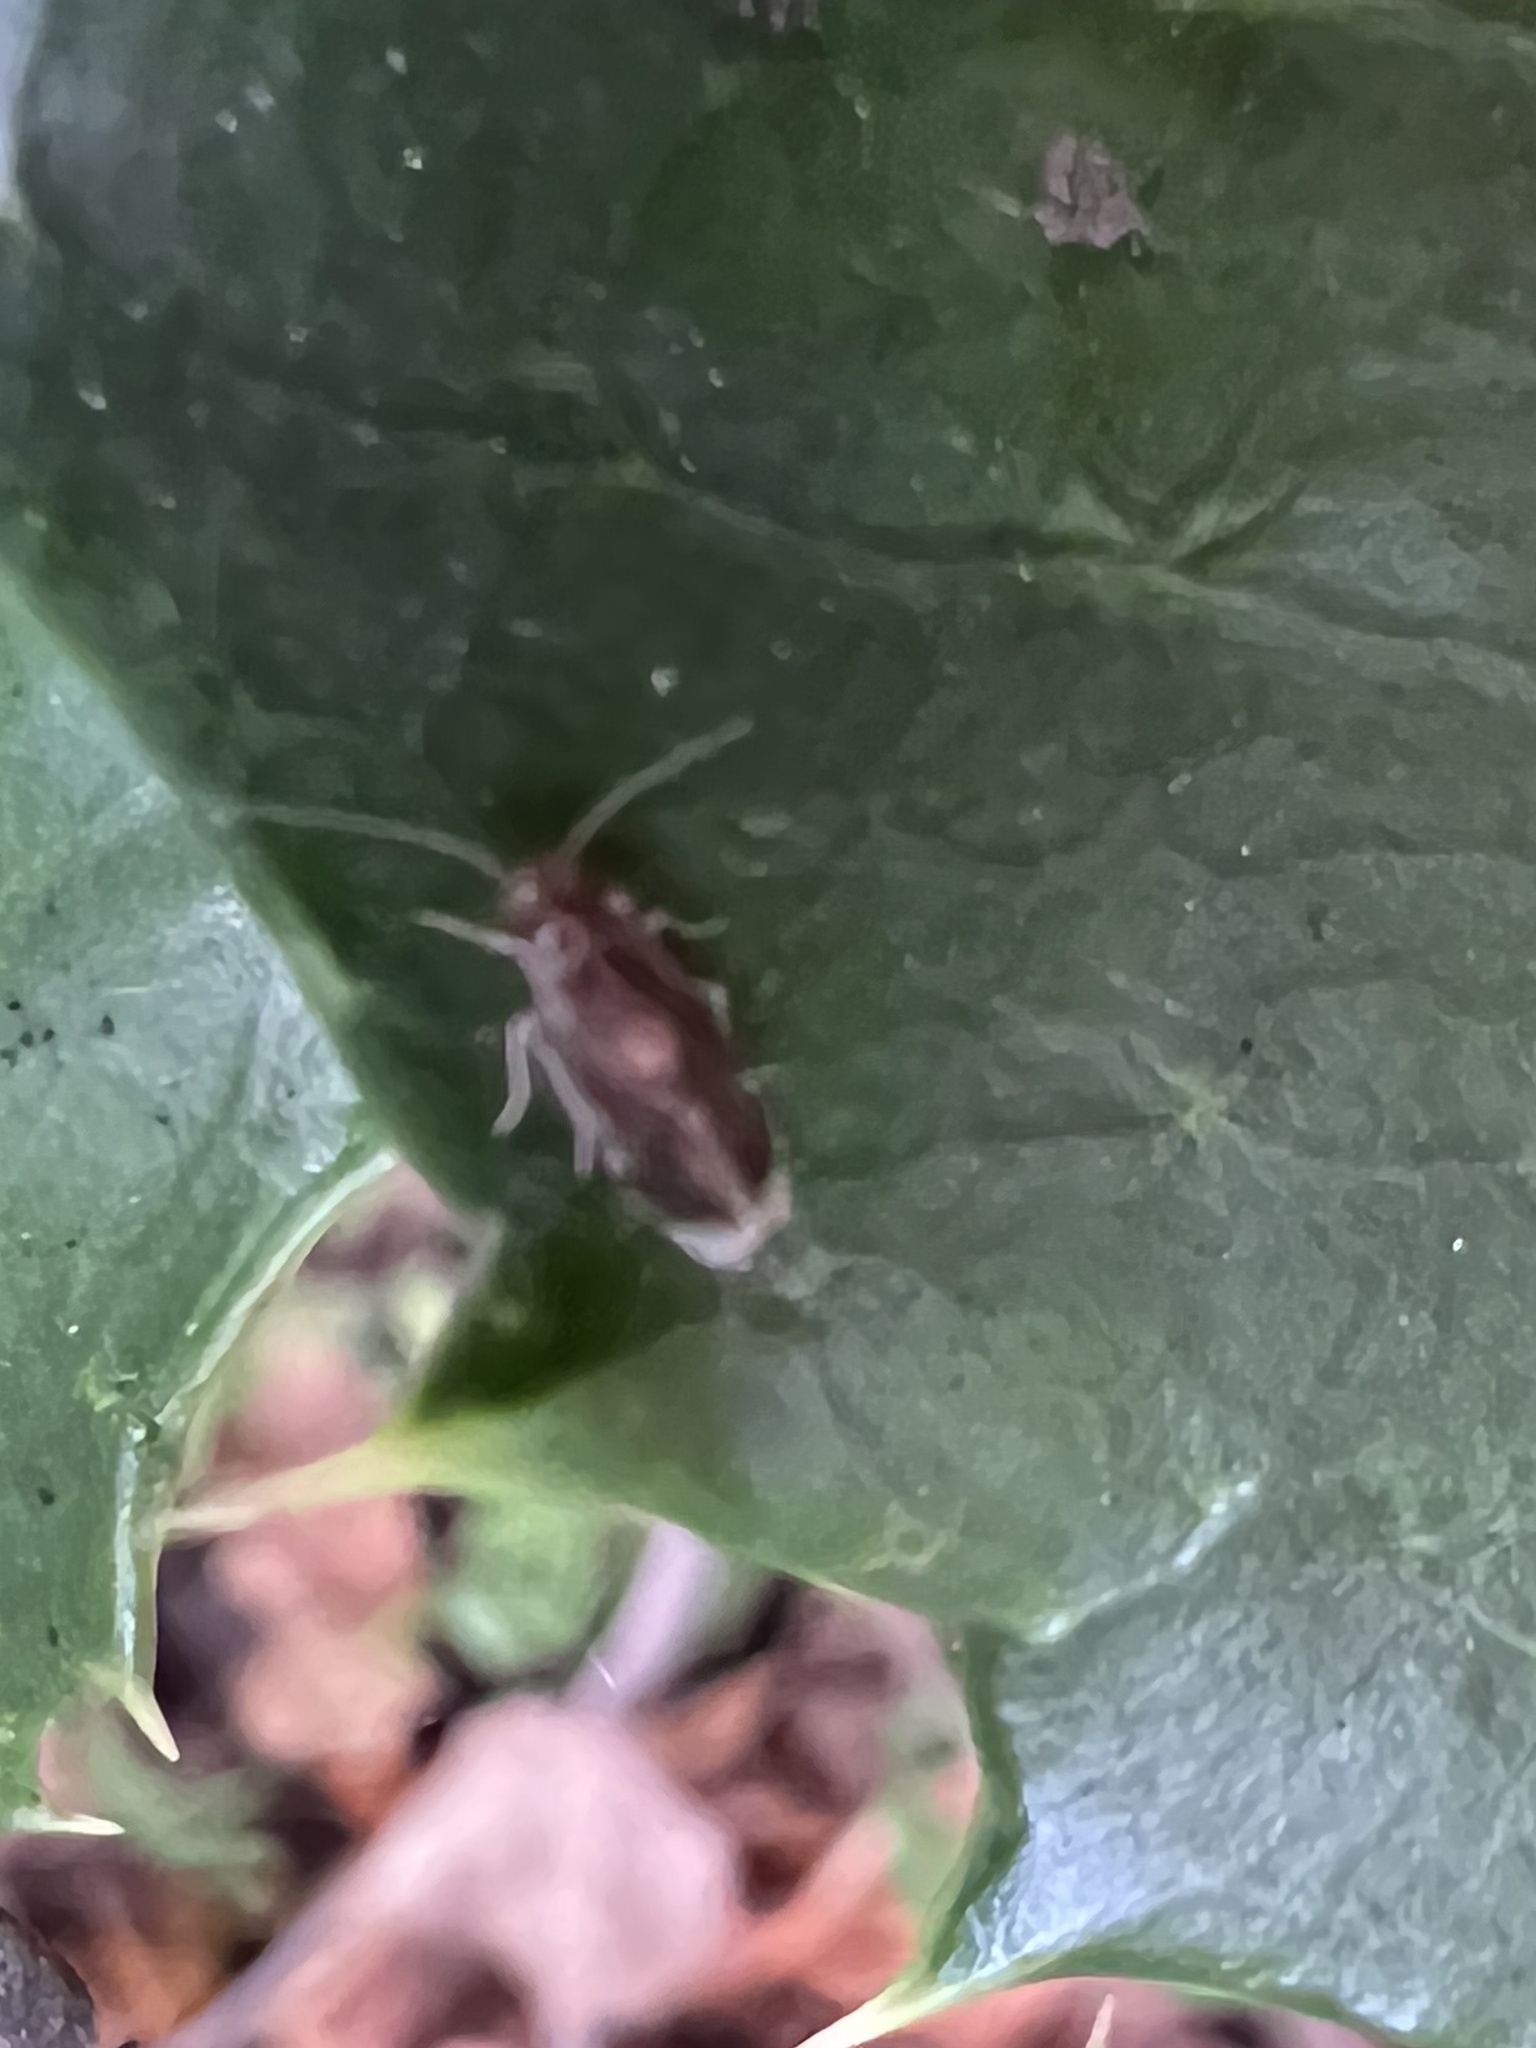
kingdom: Animalia
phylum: Arthropoda
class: Insecta
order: Psocodea
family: Amphipsocidae
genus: Polypsocus
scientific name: Polypsocus corruptus
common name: Corrupt barklouse
